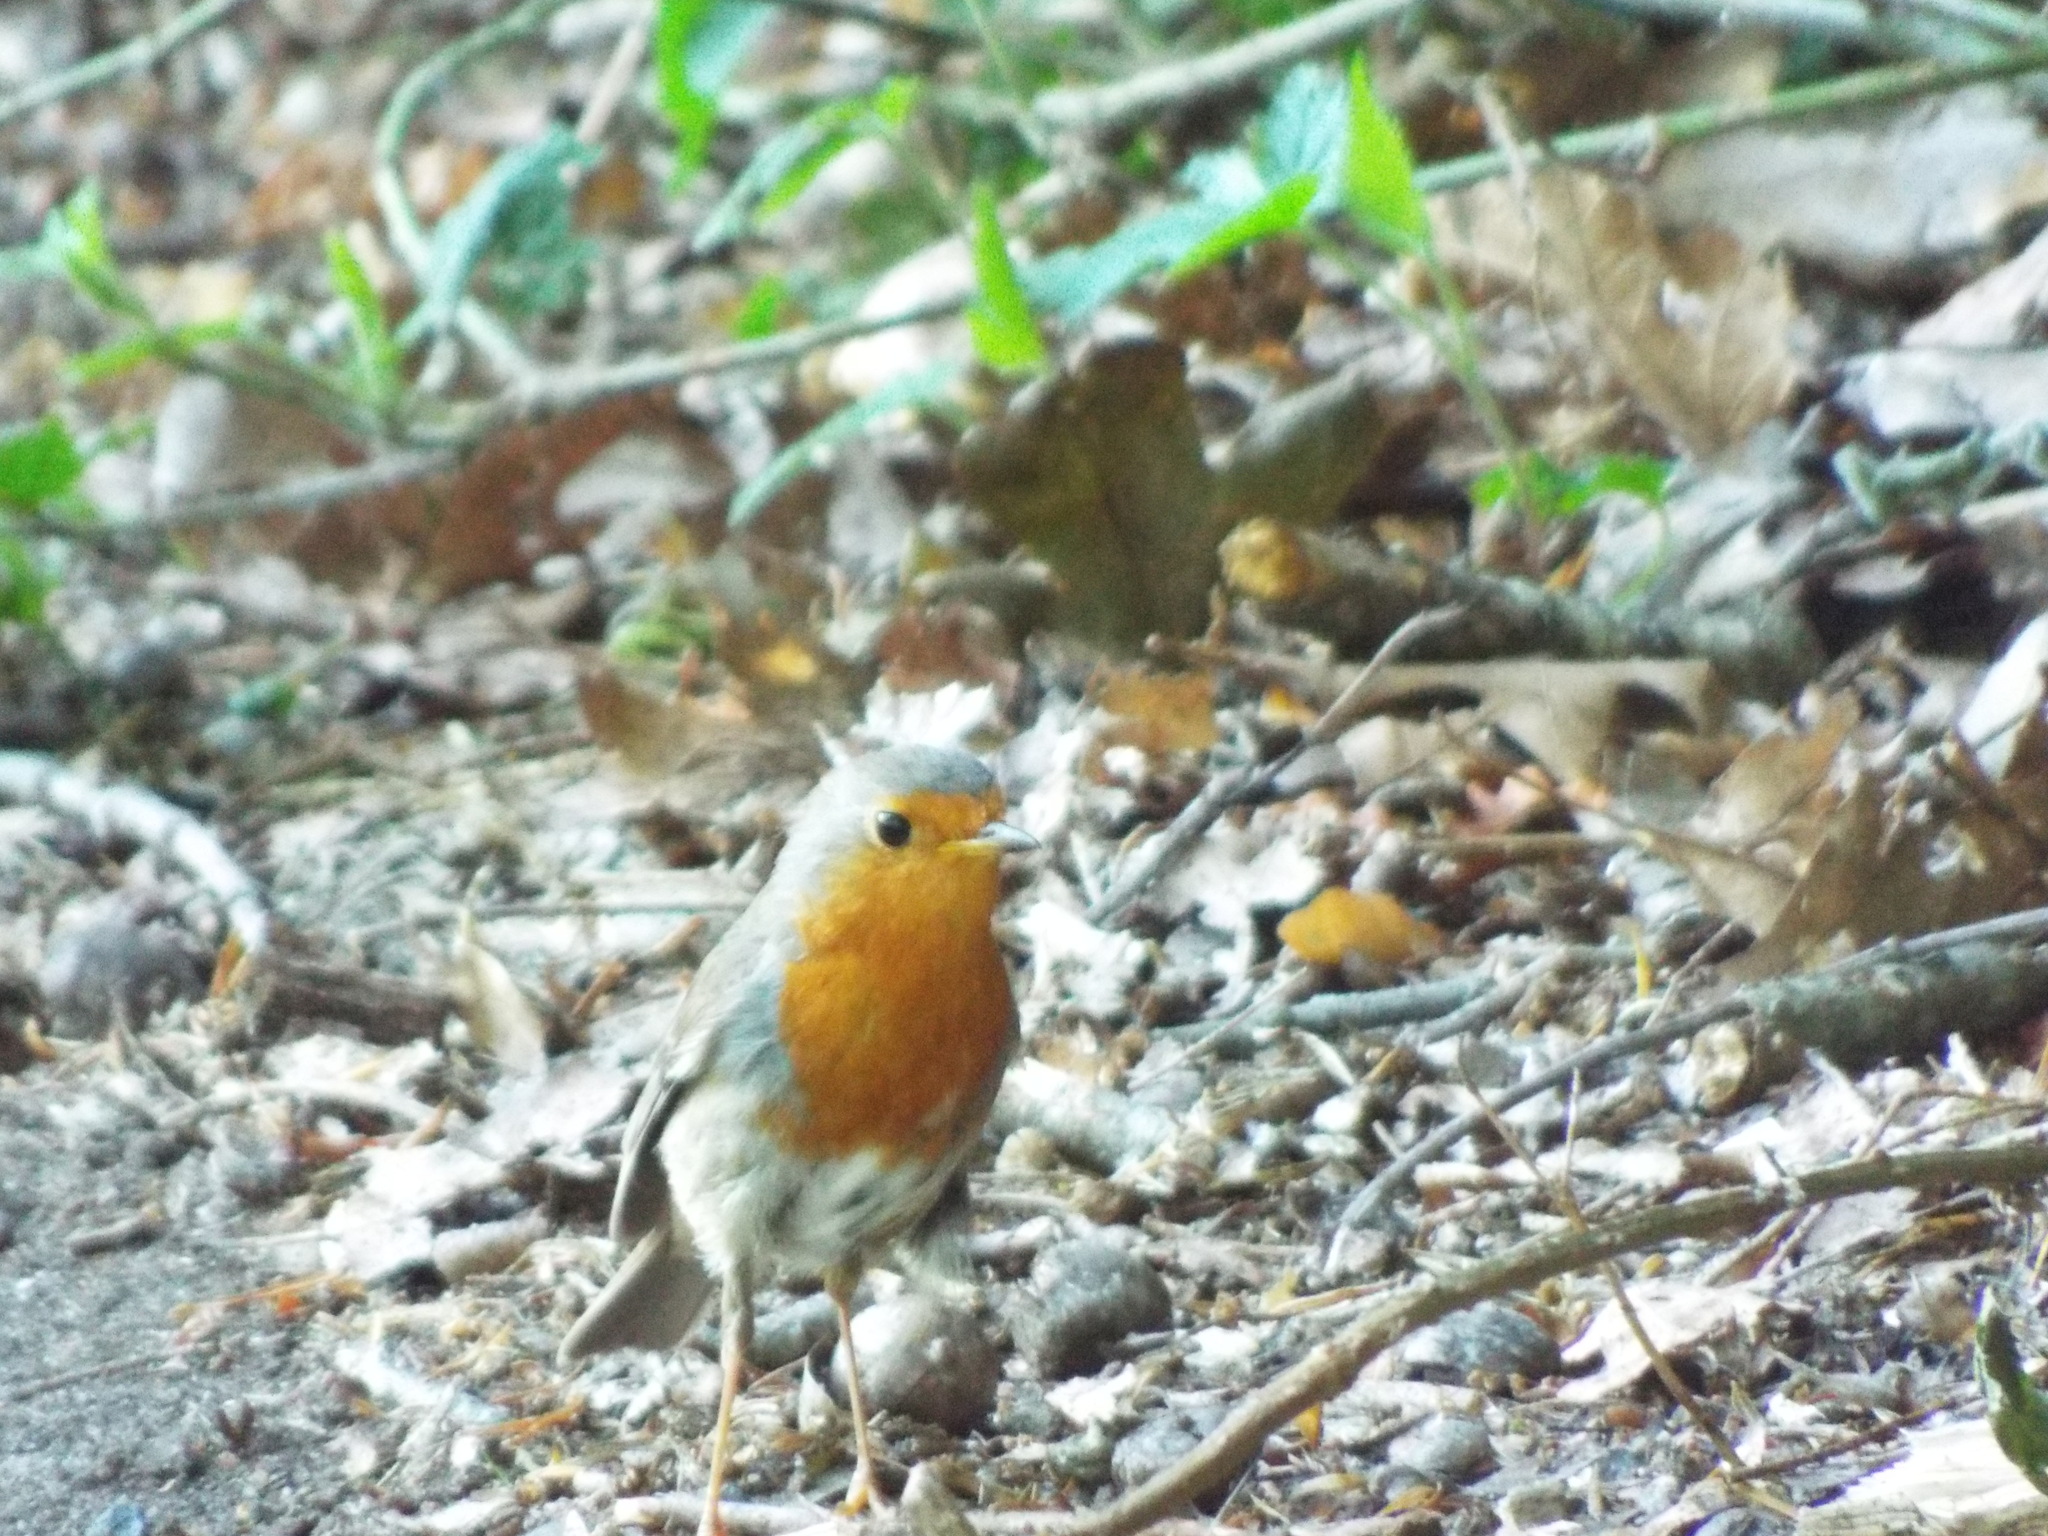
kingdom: Animalia
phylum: Chordata
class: Aves
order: Passeriformes
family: Muscicapidae
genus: Erithacus
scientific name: Erithacus rubecula
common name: European robin
